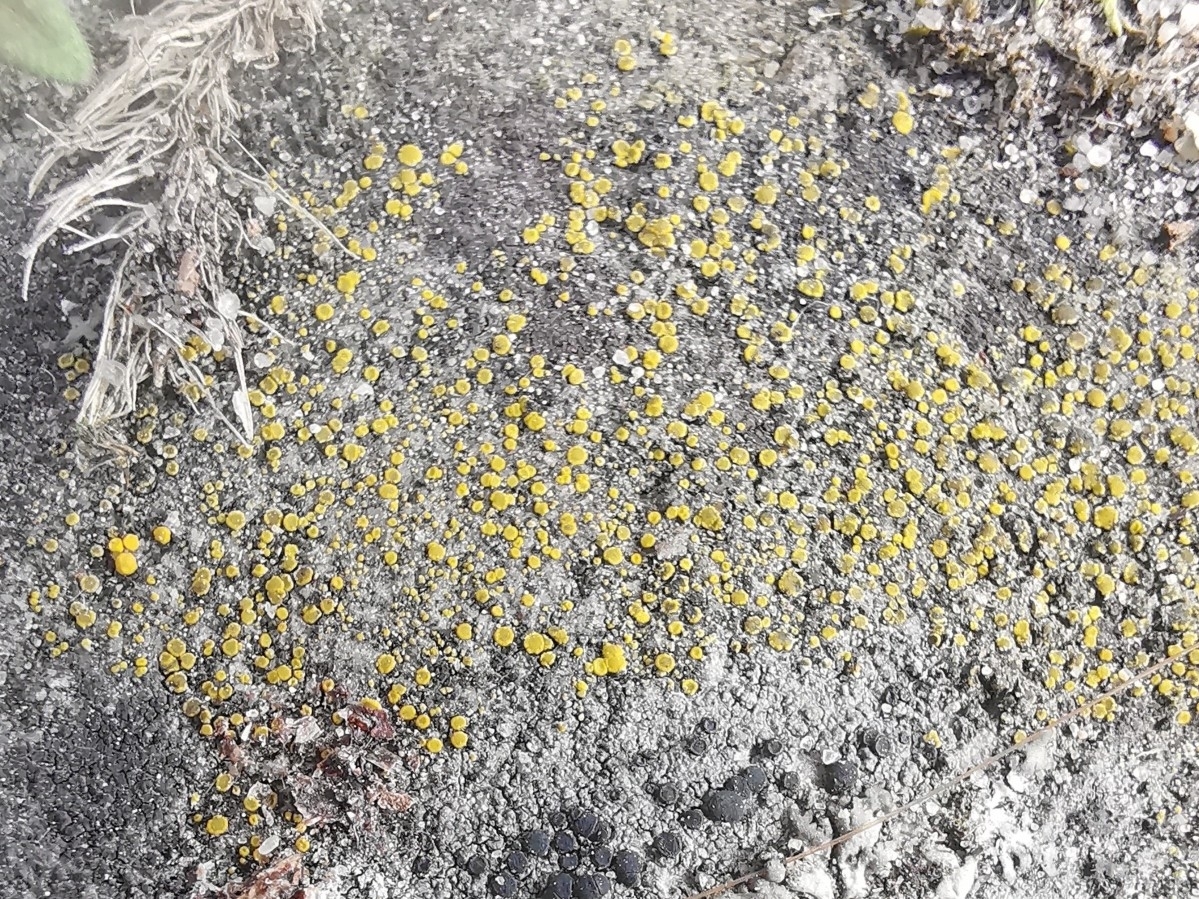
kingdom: Fungi
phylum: Ascomycota
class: Candelariomycetes
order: Candelariales
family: Candelariaceae
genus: Candelariella
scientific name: Candelariella aurella
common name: Hidden goldspeck lichen
